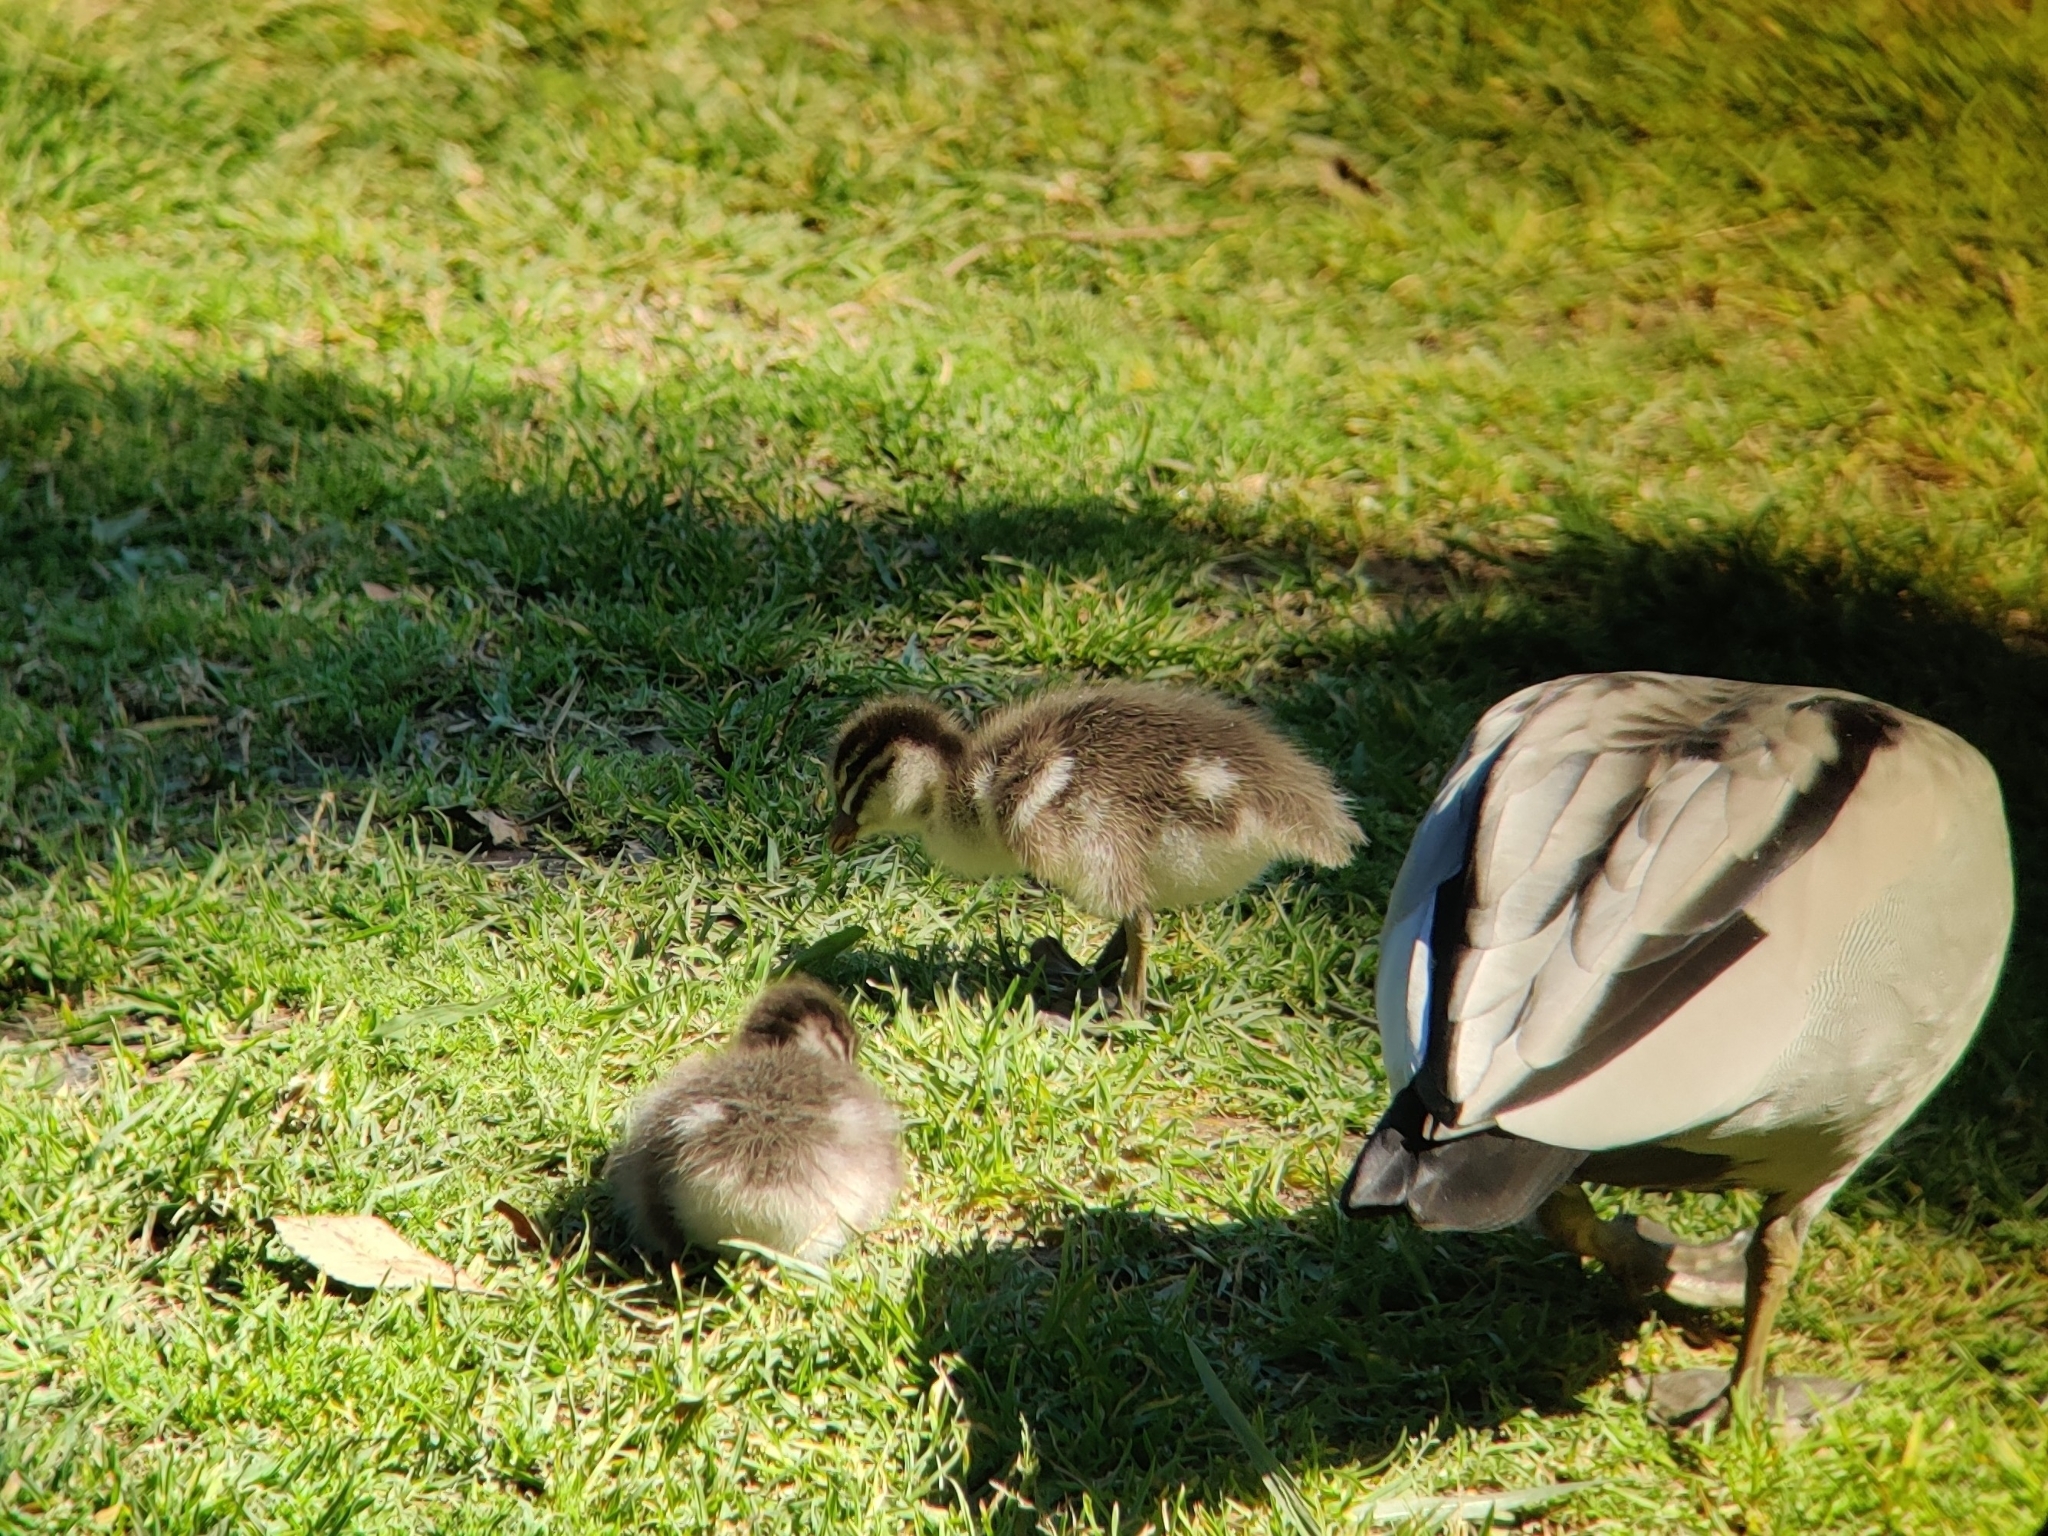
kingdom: Animalia
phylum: Chordata
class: Aves
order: Anseriformes
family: Anatidae
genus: Chenonetta
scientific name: Chenonetta jubata
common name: Maned duck
